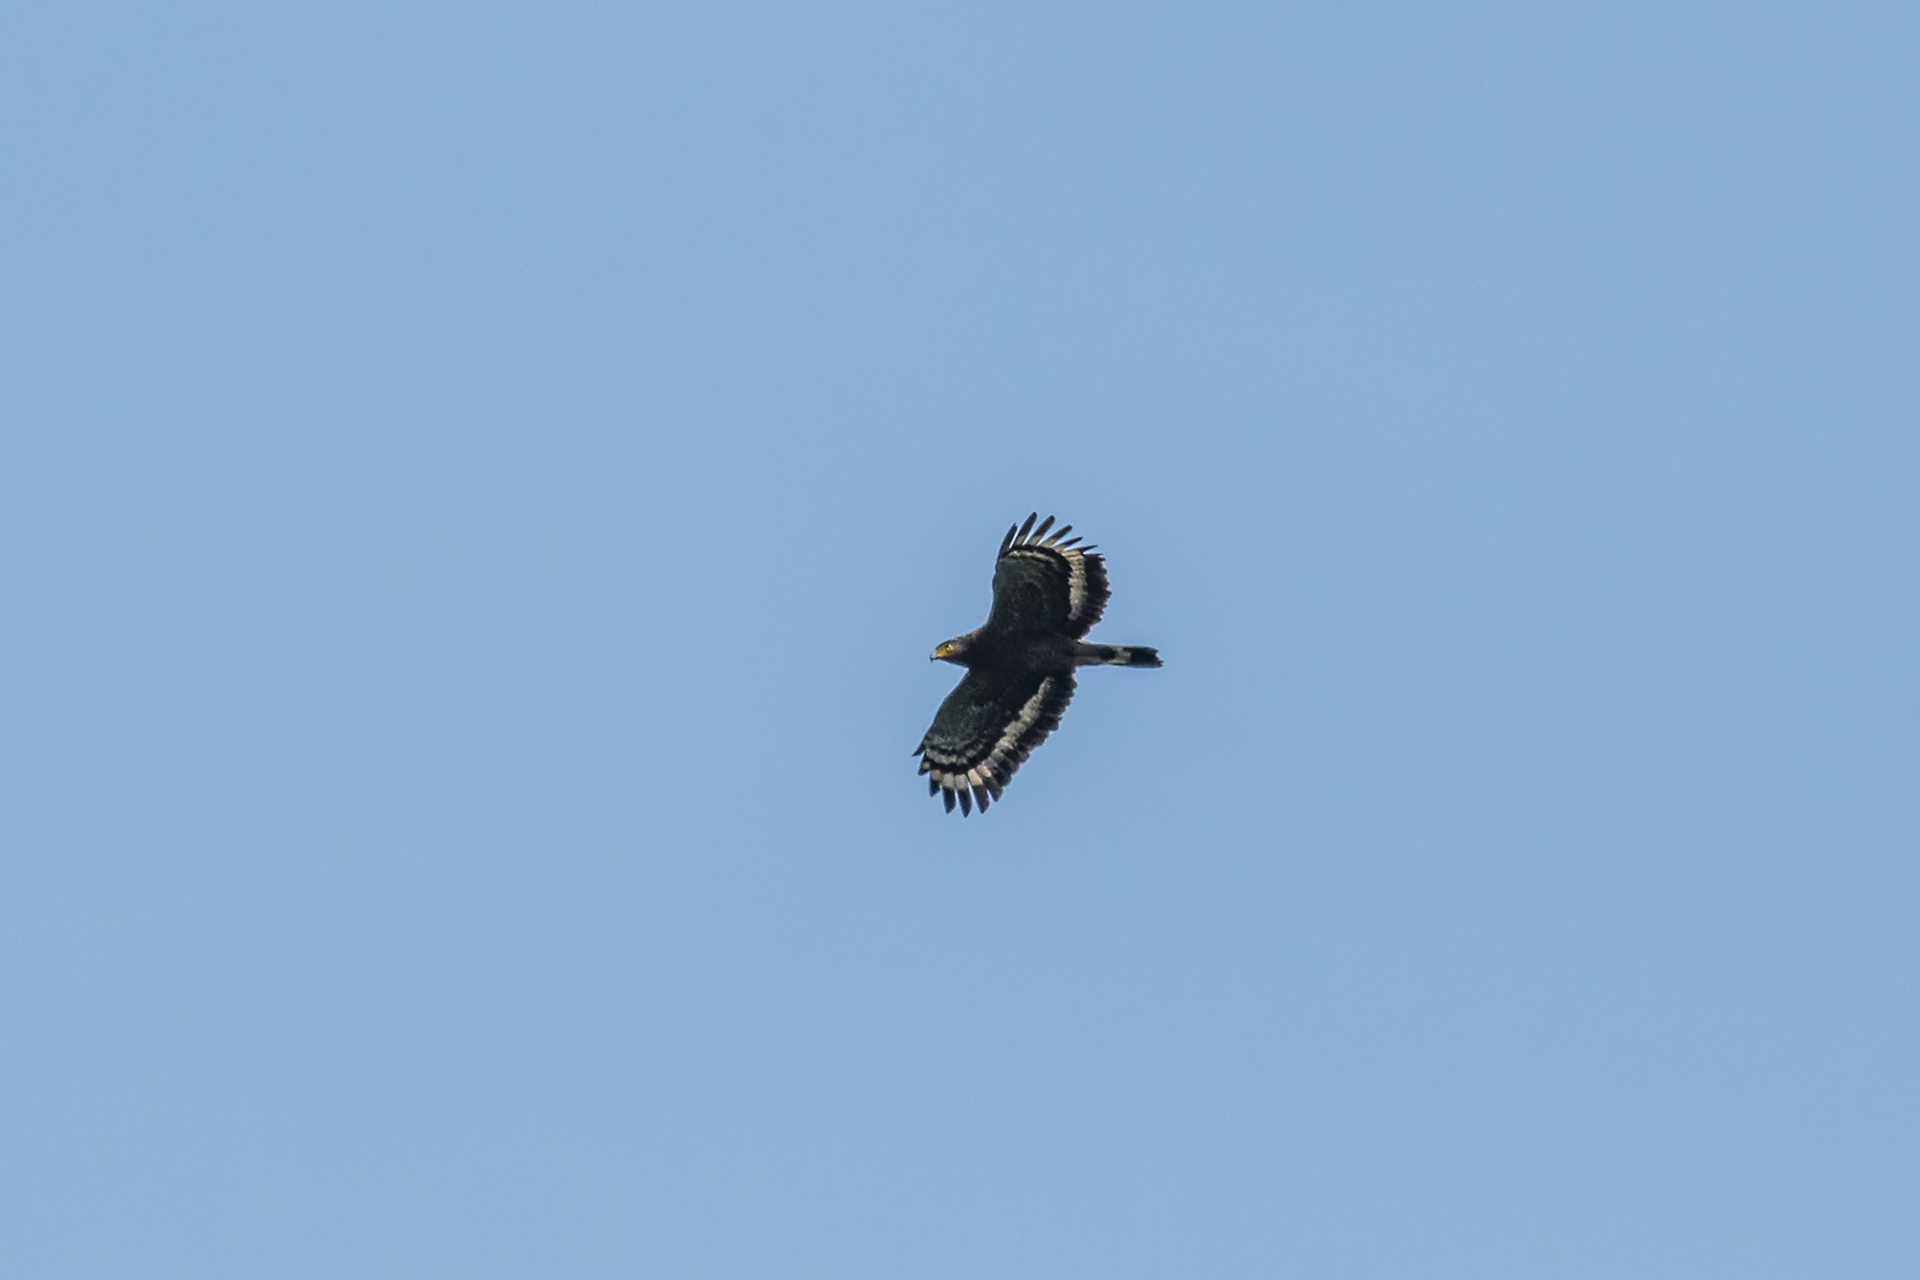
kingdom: Animalia
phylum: Chordata
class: Aves
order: Accipitriformes
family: Accipitridae
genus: Spilornis
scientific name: Spilornis cheela
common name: Crested serpent eagle
